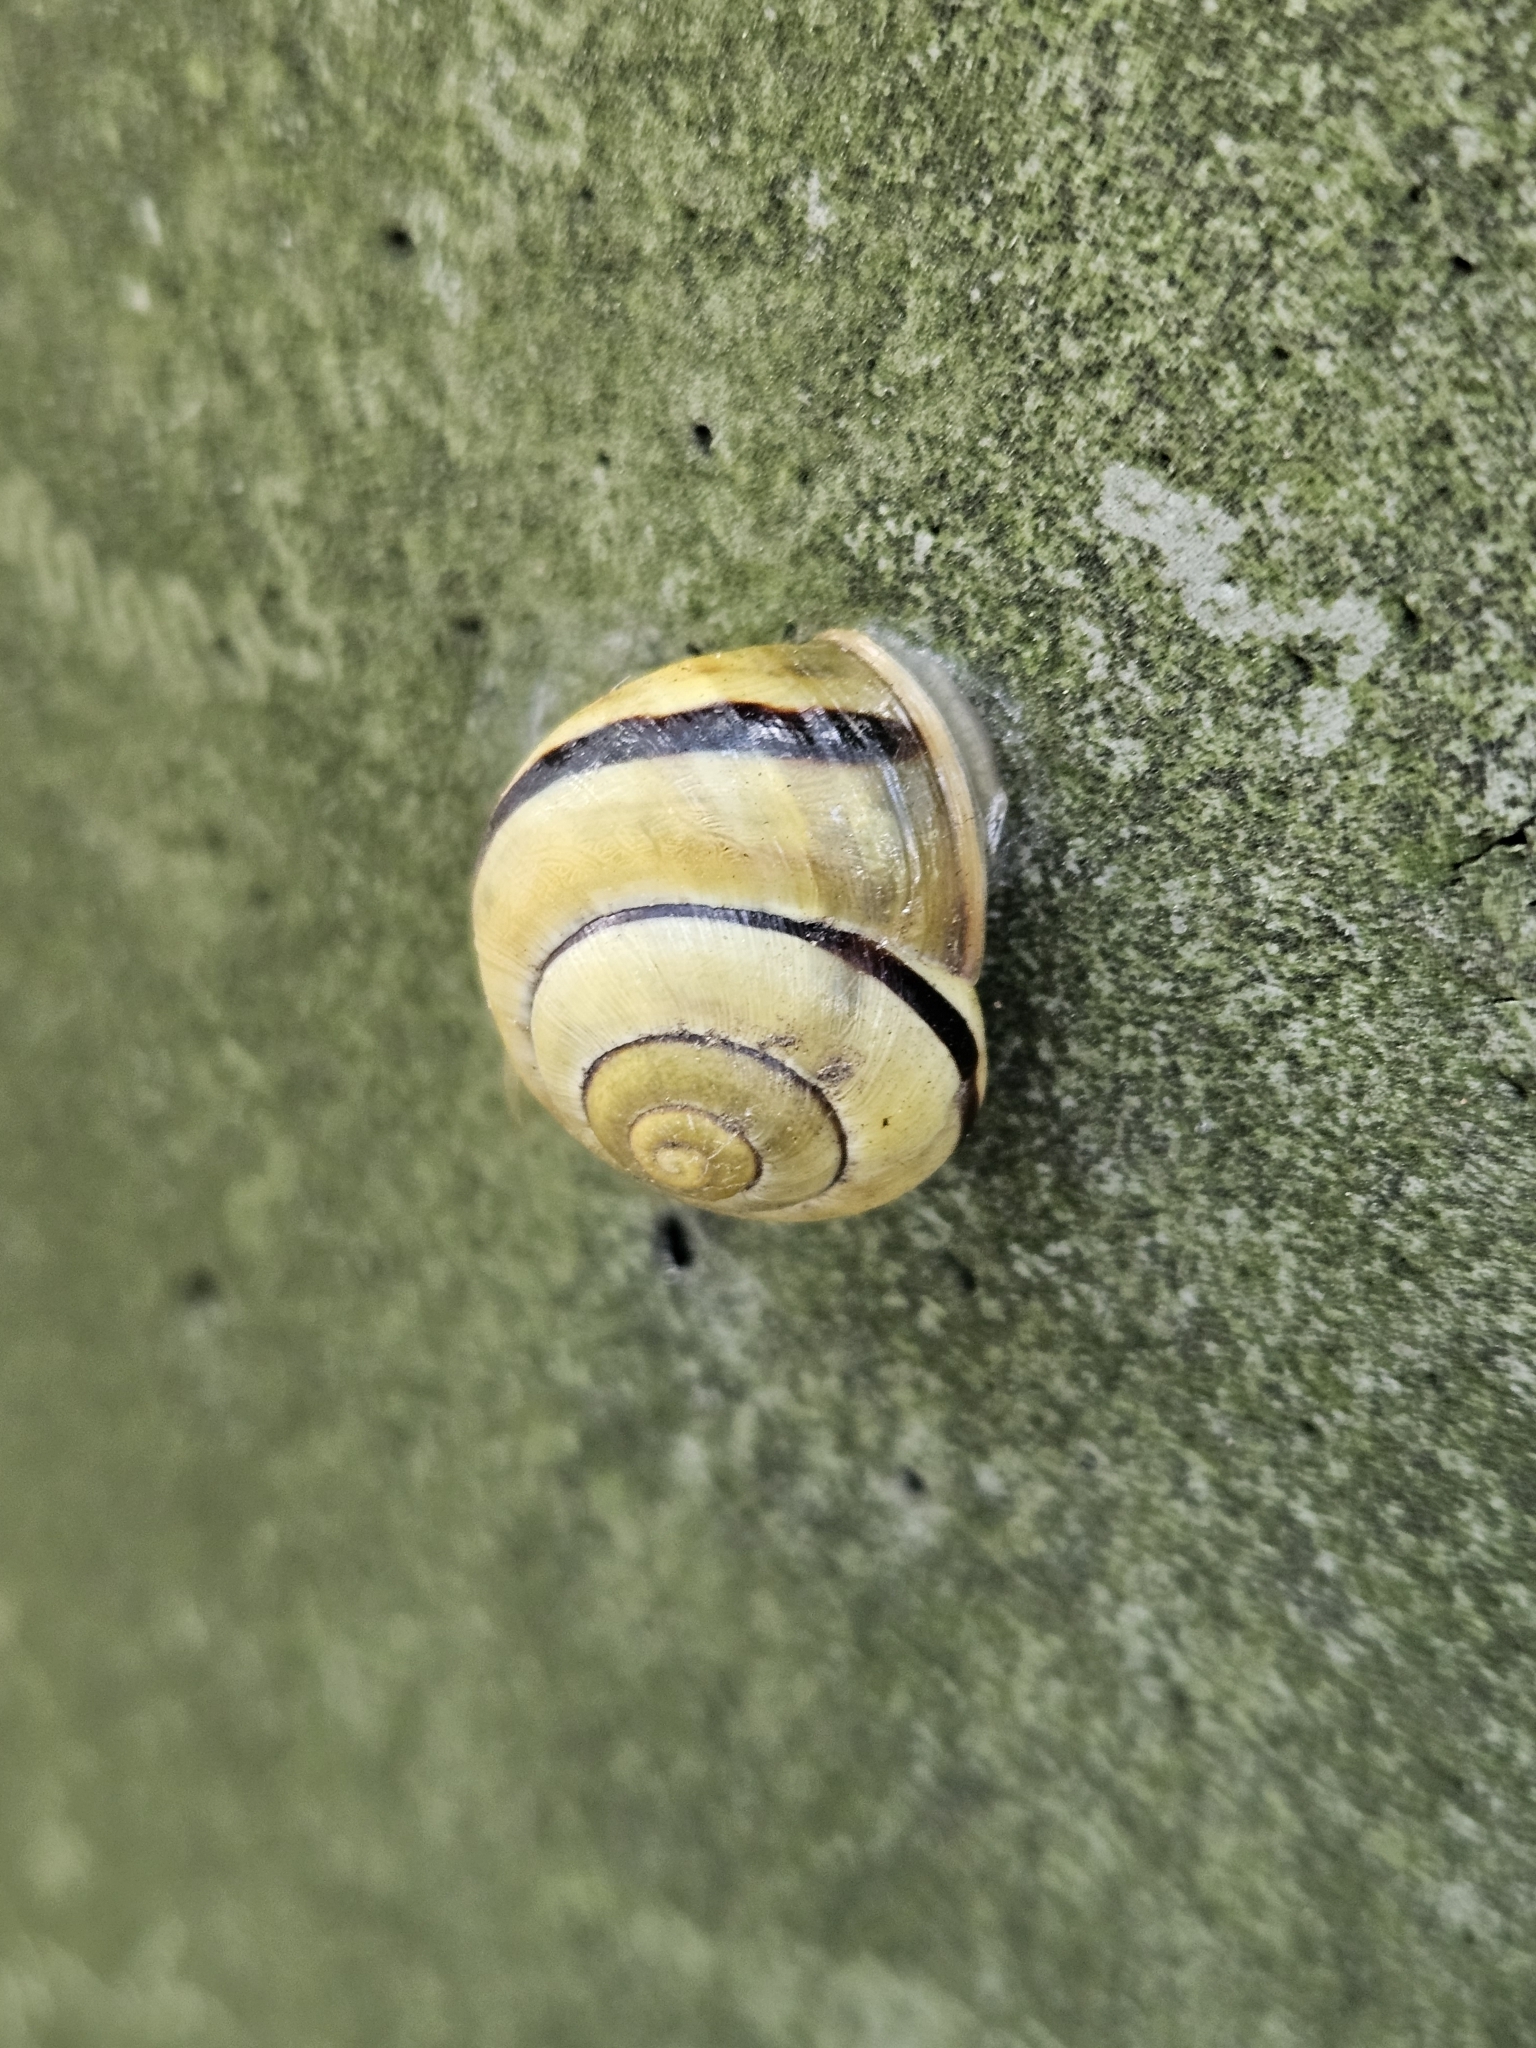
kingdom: Animalia
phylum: Mollusca
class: Gastropoda
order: Stylommatophora
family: Helicidae
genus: Cepaea
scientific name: Cepaea nemoralis
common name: Grovesnail
